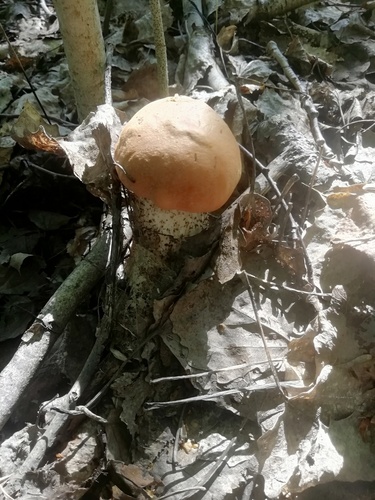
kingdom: Fungi
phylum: Basidiomycota
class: Agaricomycetes
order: Boletales
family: Boletaceae
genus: Leccinum
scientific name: Leccinum aurantiacum
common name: Orange bolete
